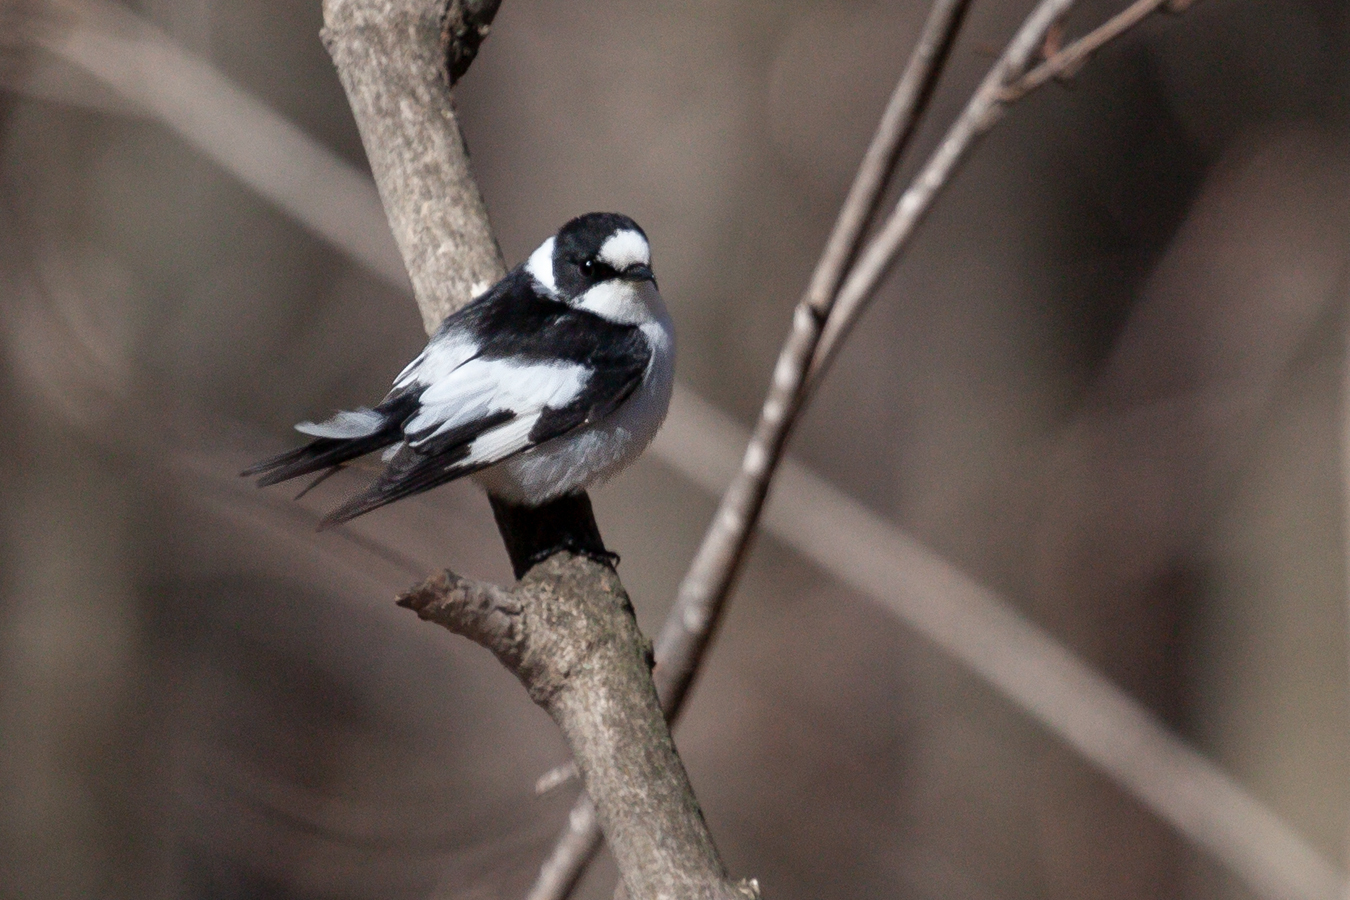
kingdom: Animalia
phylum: Chordata
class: Aves
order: Passeriformes
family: Muscicapidae
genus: Ficedula
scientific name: Ficedula albicollis
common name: Collared flycatcher
